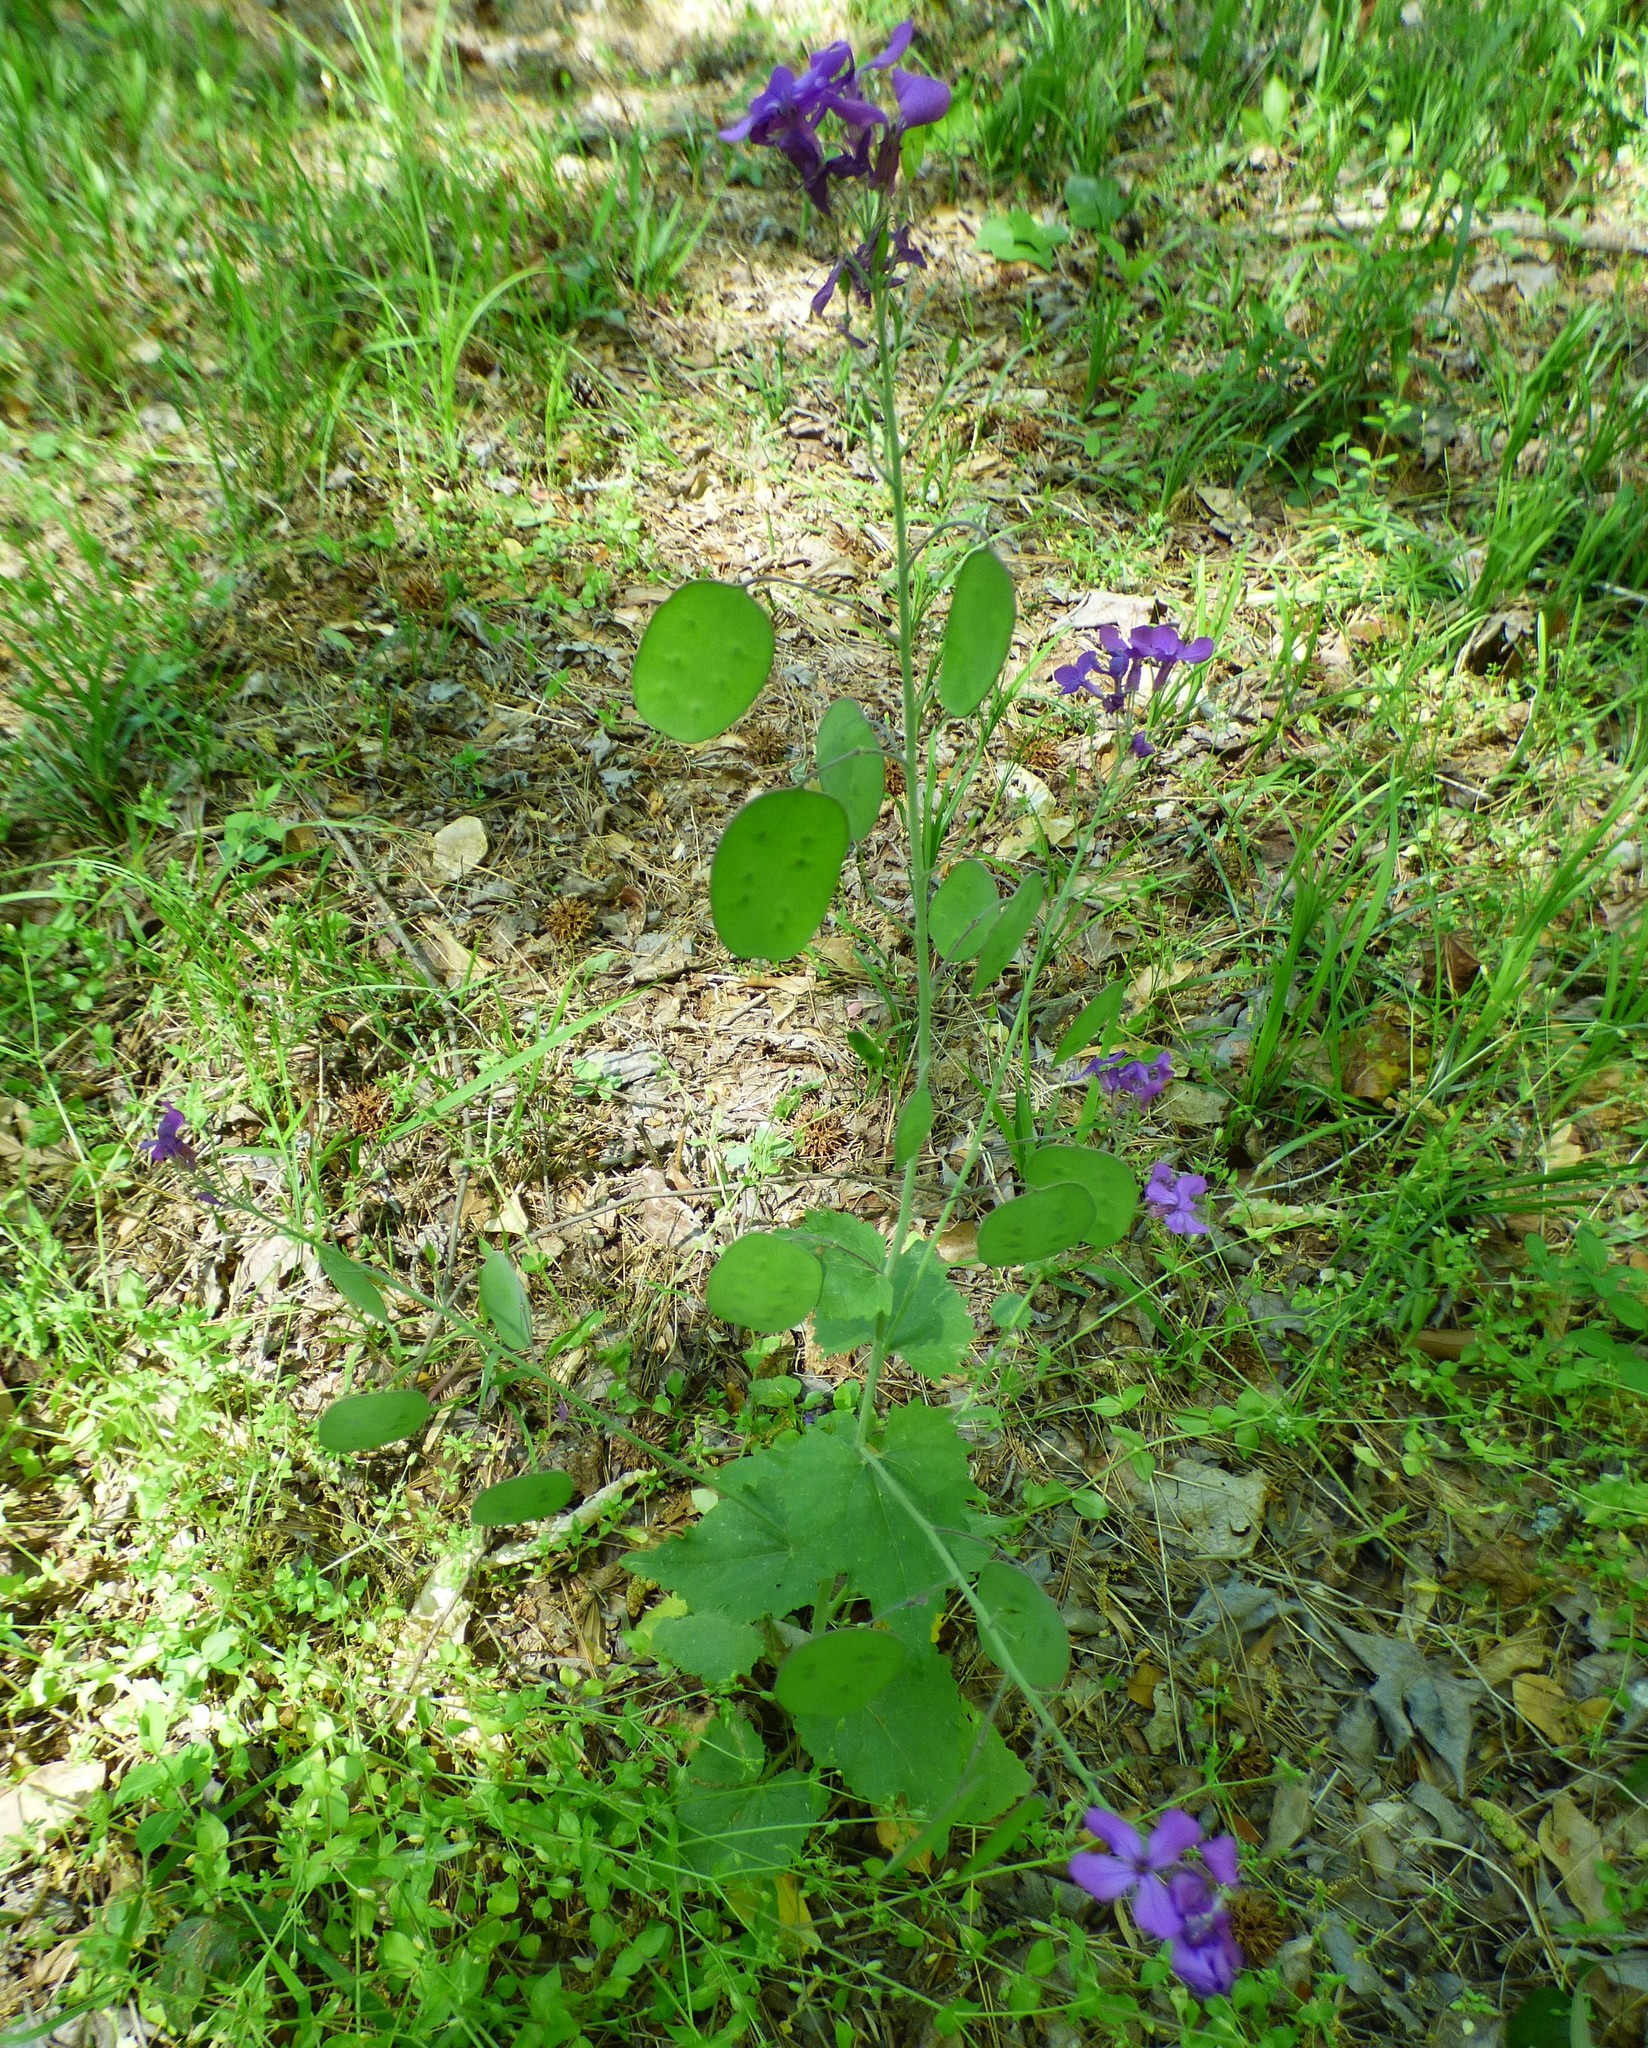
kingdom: Plantae
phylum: Tracheophyta
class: Magnoliopsida
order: Brassicales
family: Brassicaceae
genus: Lunaria
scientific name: Lunaria annua
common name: Honesty
